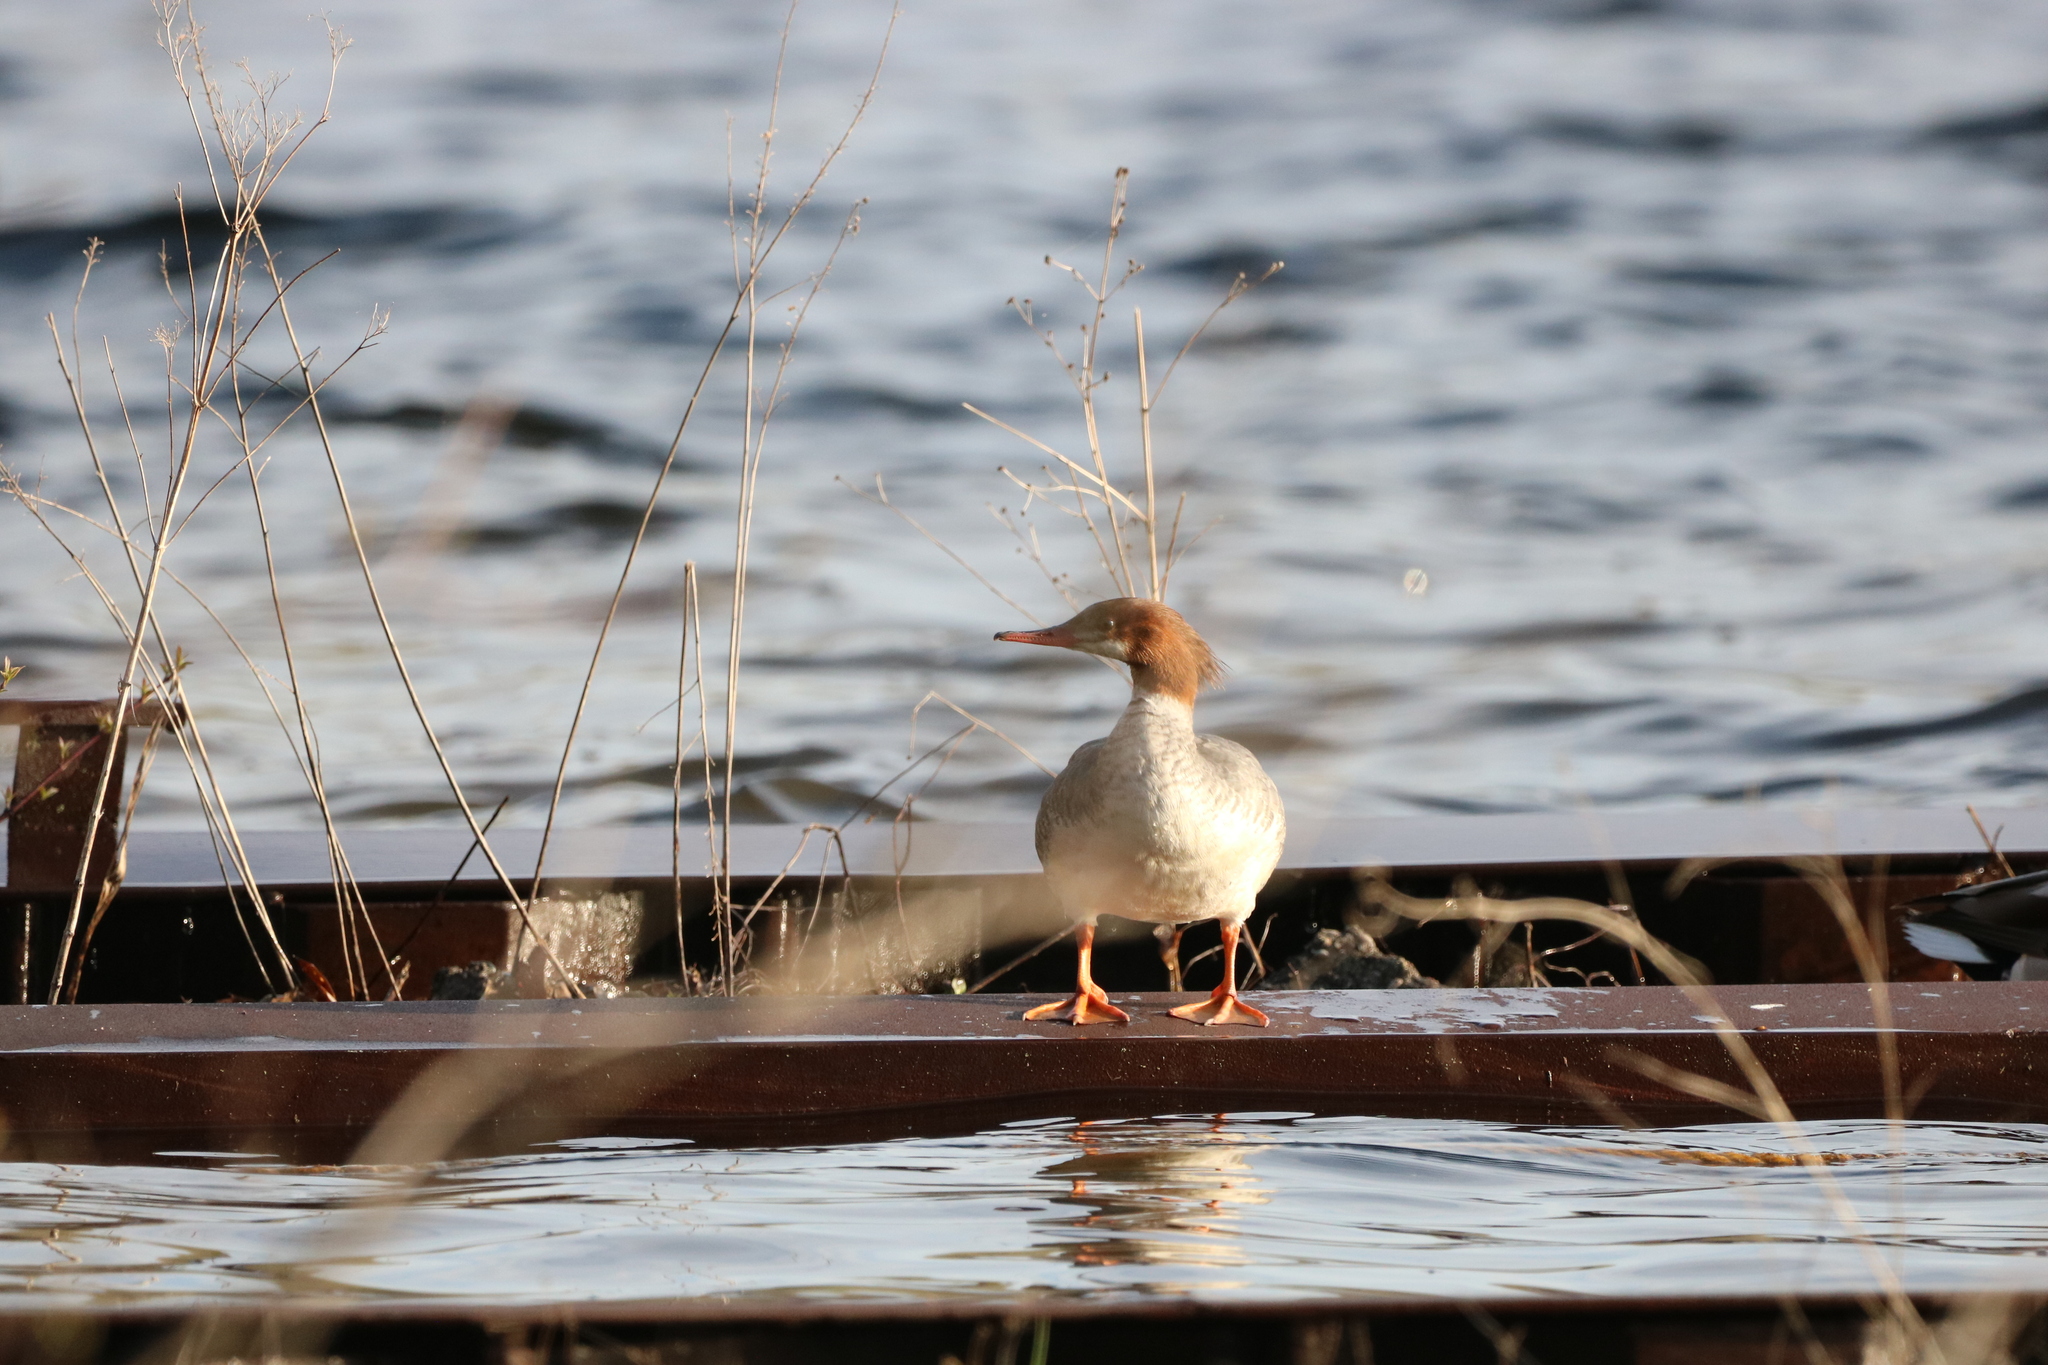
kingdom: Animalia
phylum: Chordata
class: Aves
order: Anseriformes
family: Anatidae
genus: Mergus
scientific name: Mergus merganser
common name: Common merganser
